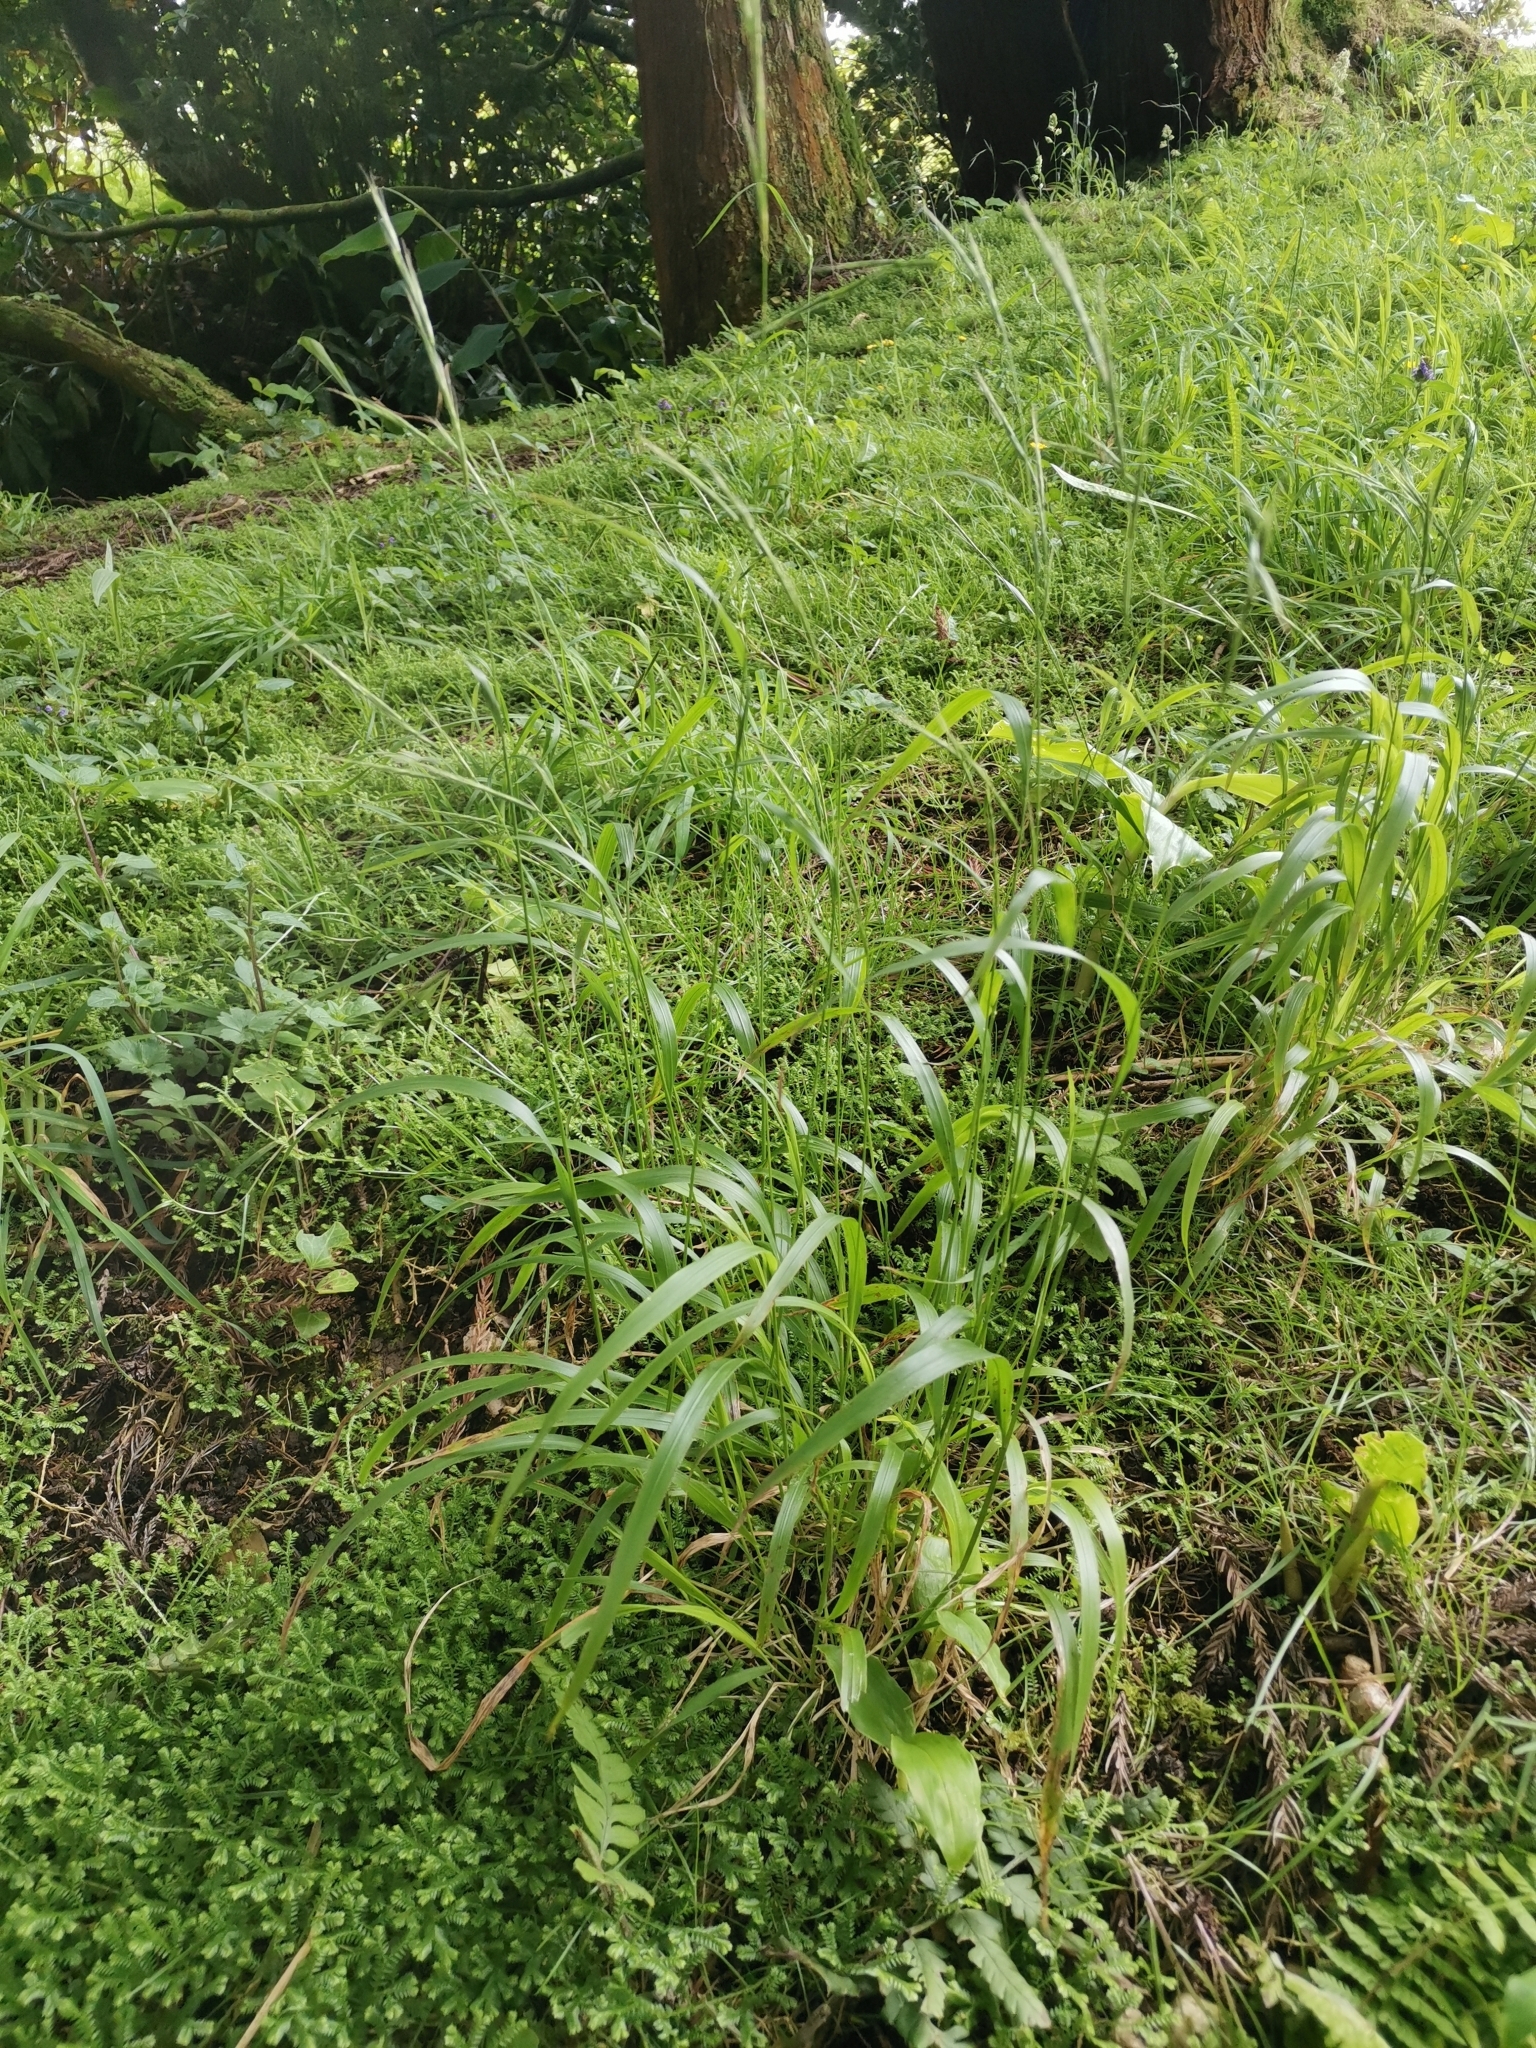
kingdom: Plantae
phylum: Tracheophyta
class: Liliopsida
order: Poales
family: Poaceae
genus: Brachypodium
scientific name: Brachypodium sylvaticum
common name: False-brome
